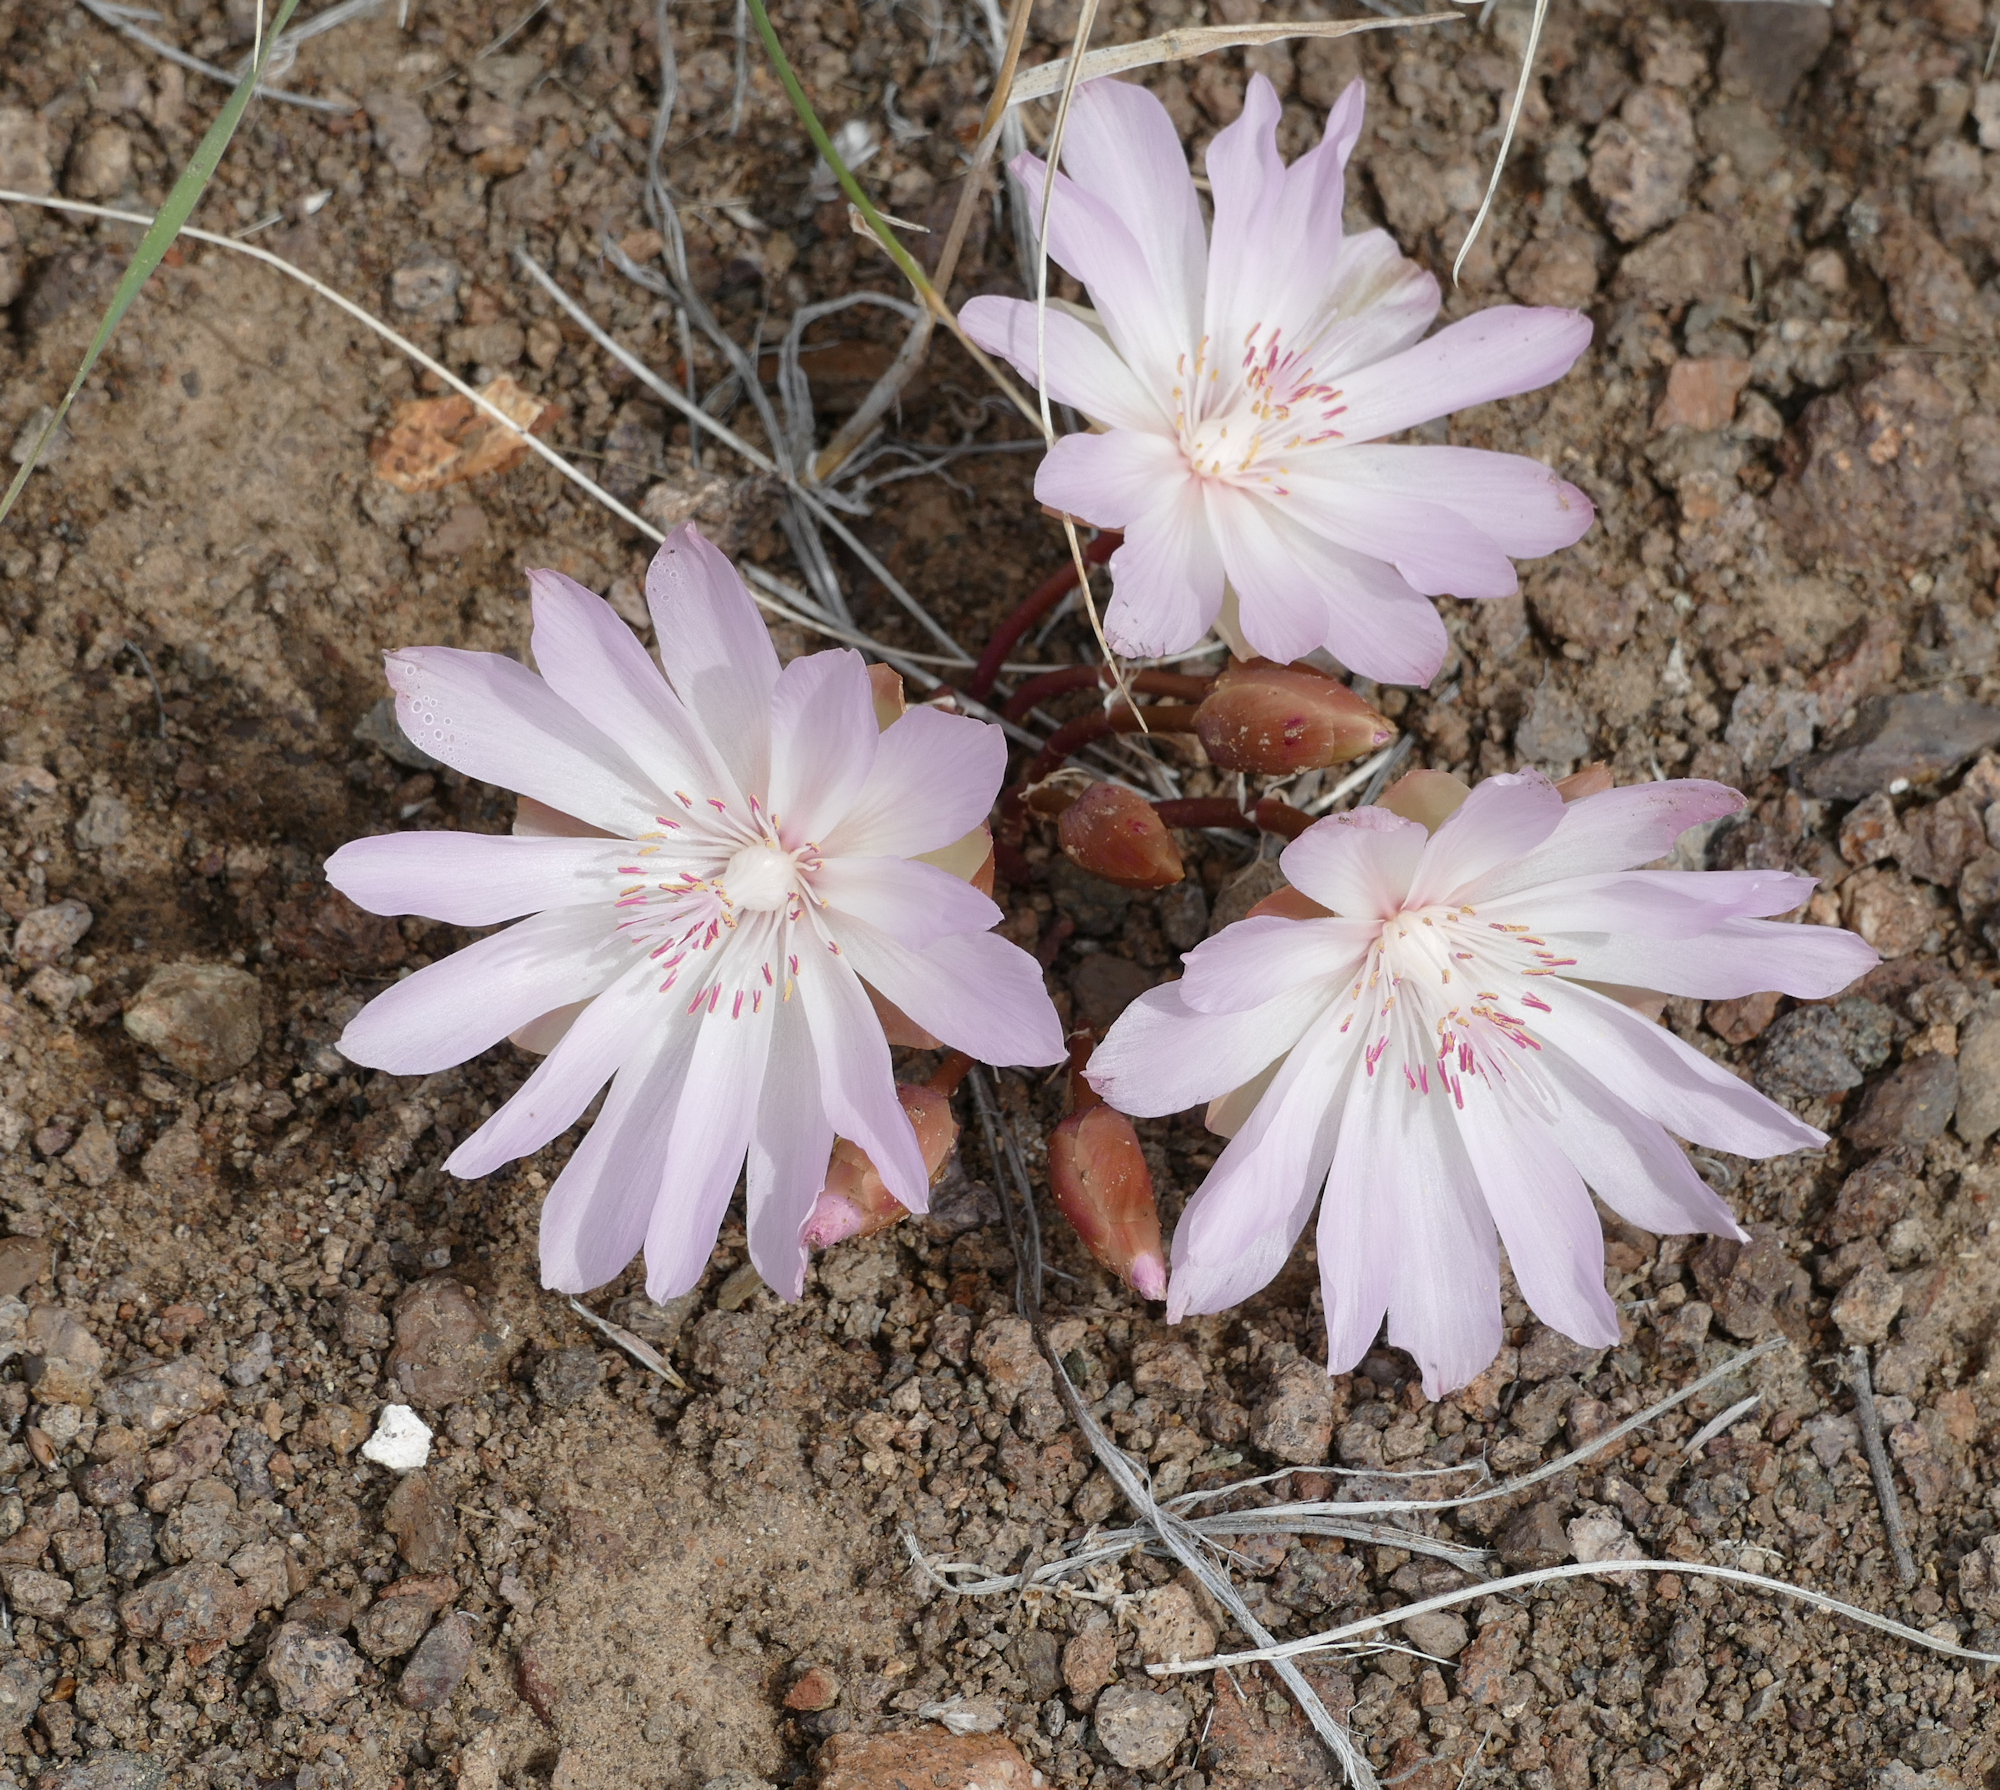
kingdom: Plantae
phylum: Tracheophyta
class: Magnoliopsida
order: Caryophyllales
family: Montiaceae
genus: Lewisia
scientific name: Lewisia rediviva
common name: Bitter-root
